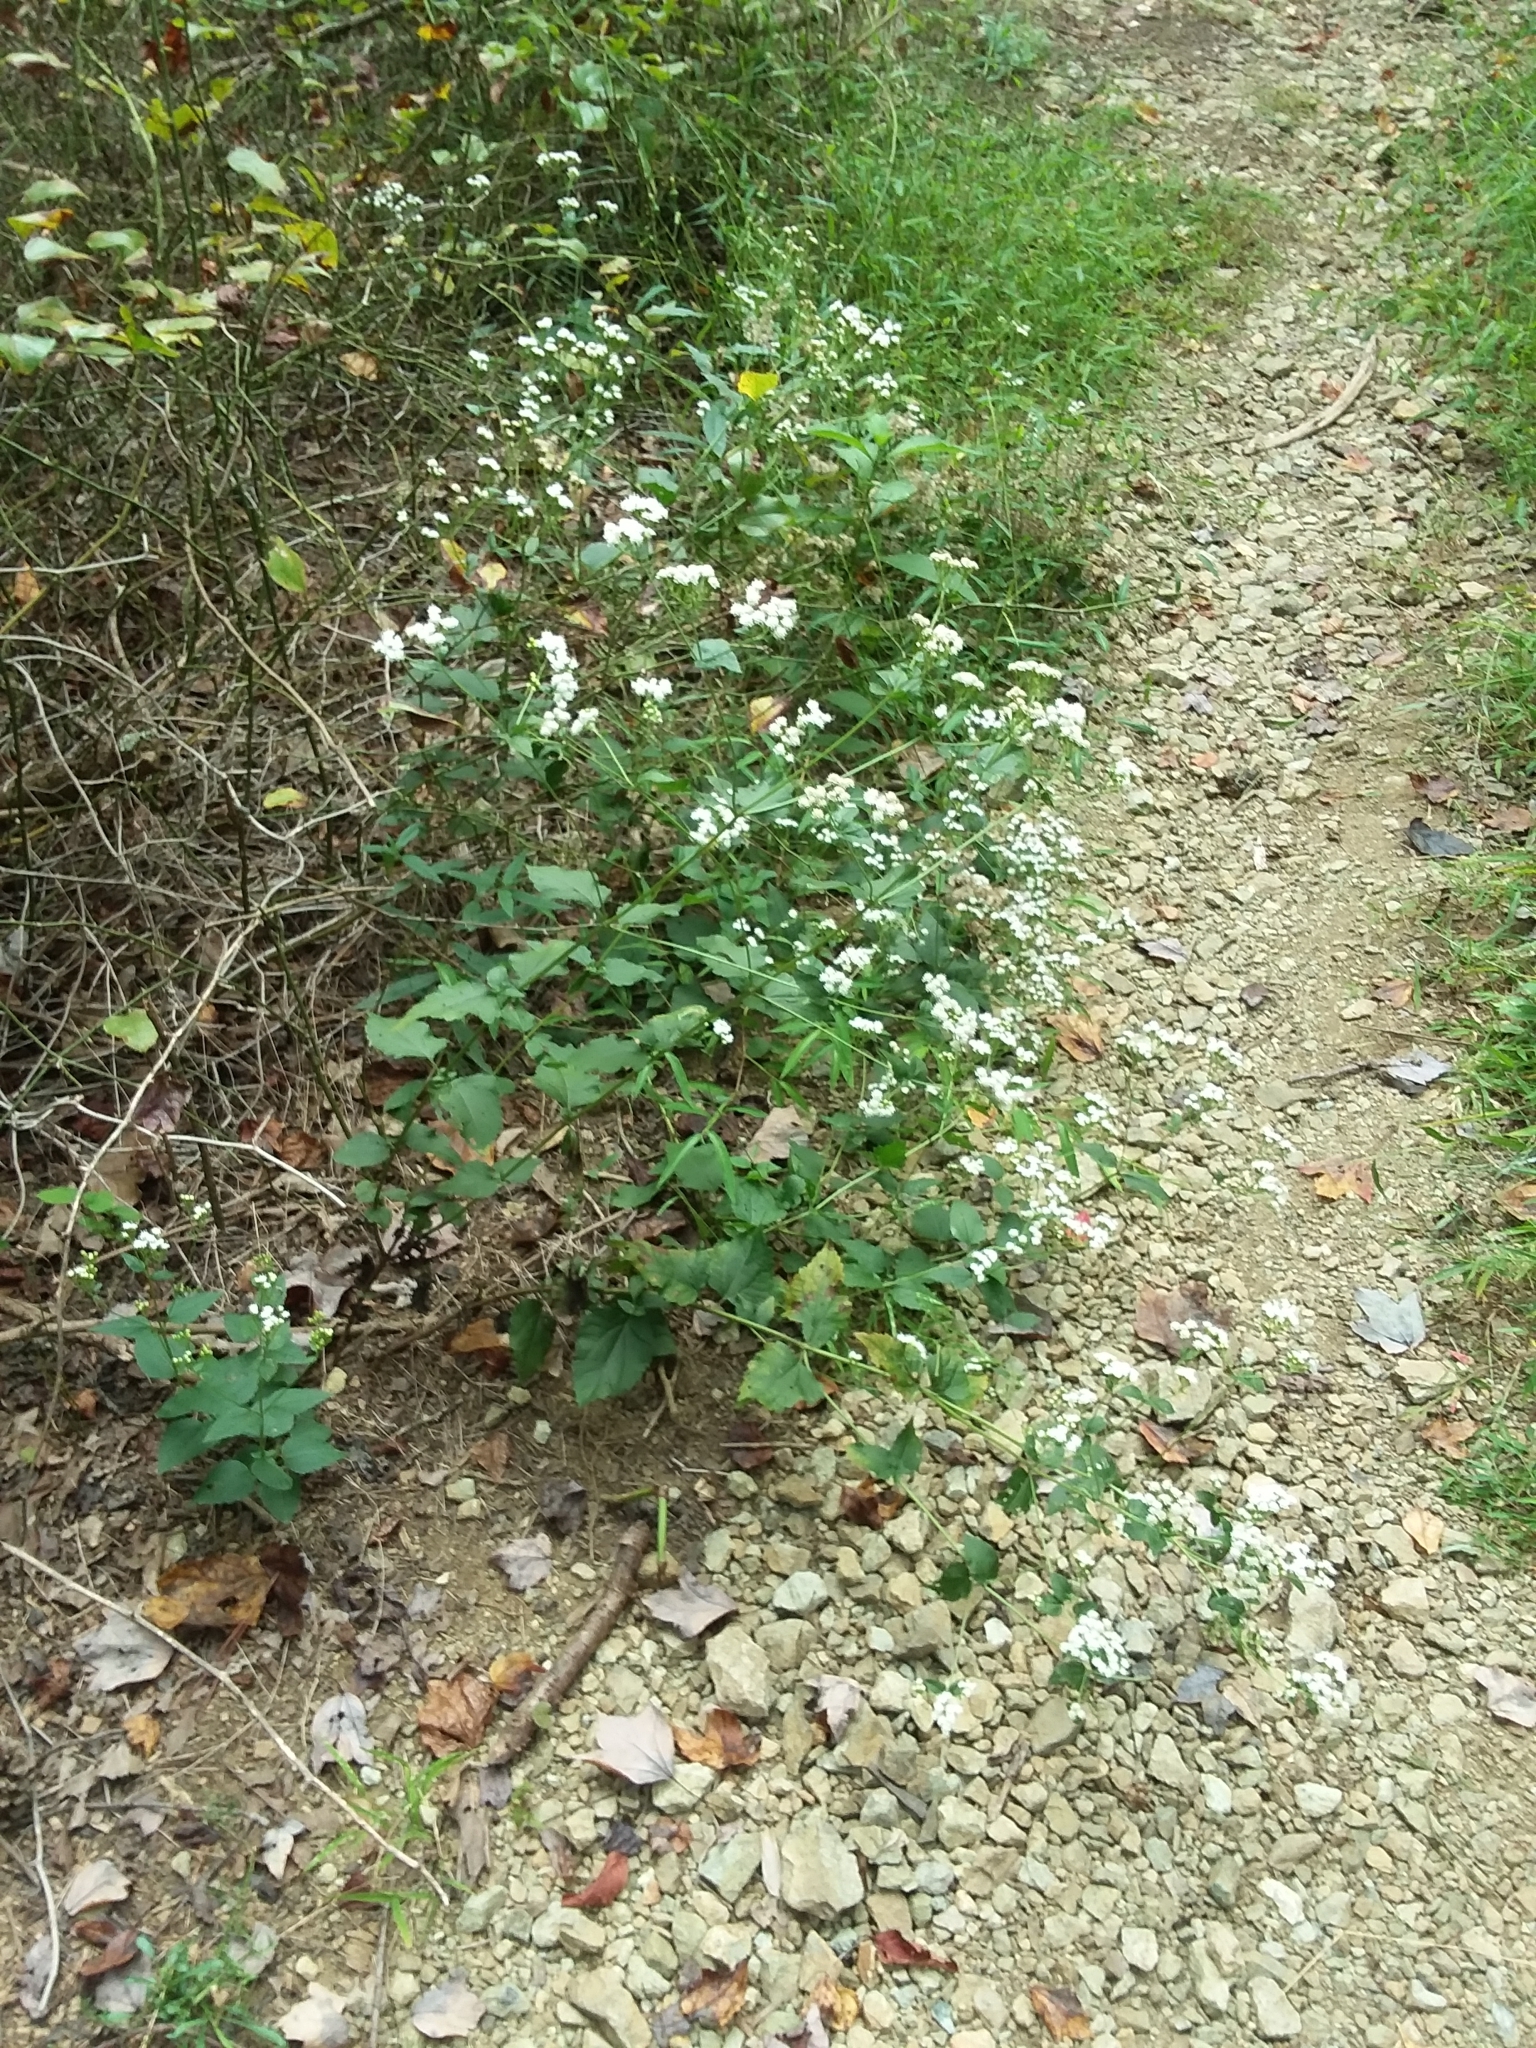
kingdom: Plantae
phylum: Tracheophyta
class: Magnoliopsida
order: Asterales
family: Asteraceae
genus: Ageratina
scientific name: Ageratina altissima
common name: White snakeroot
